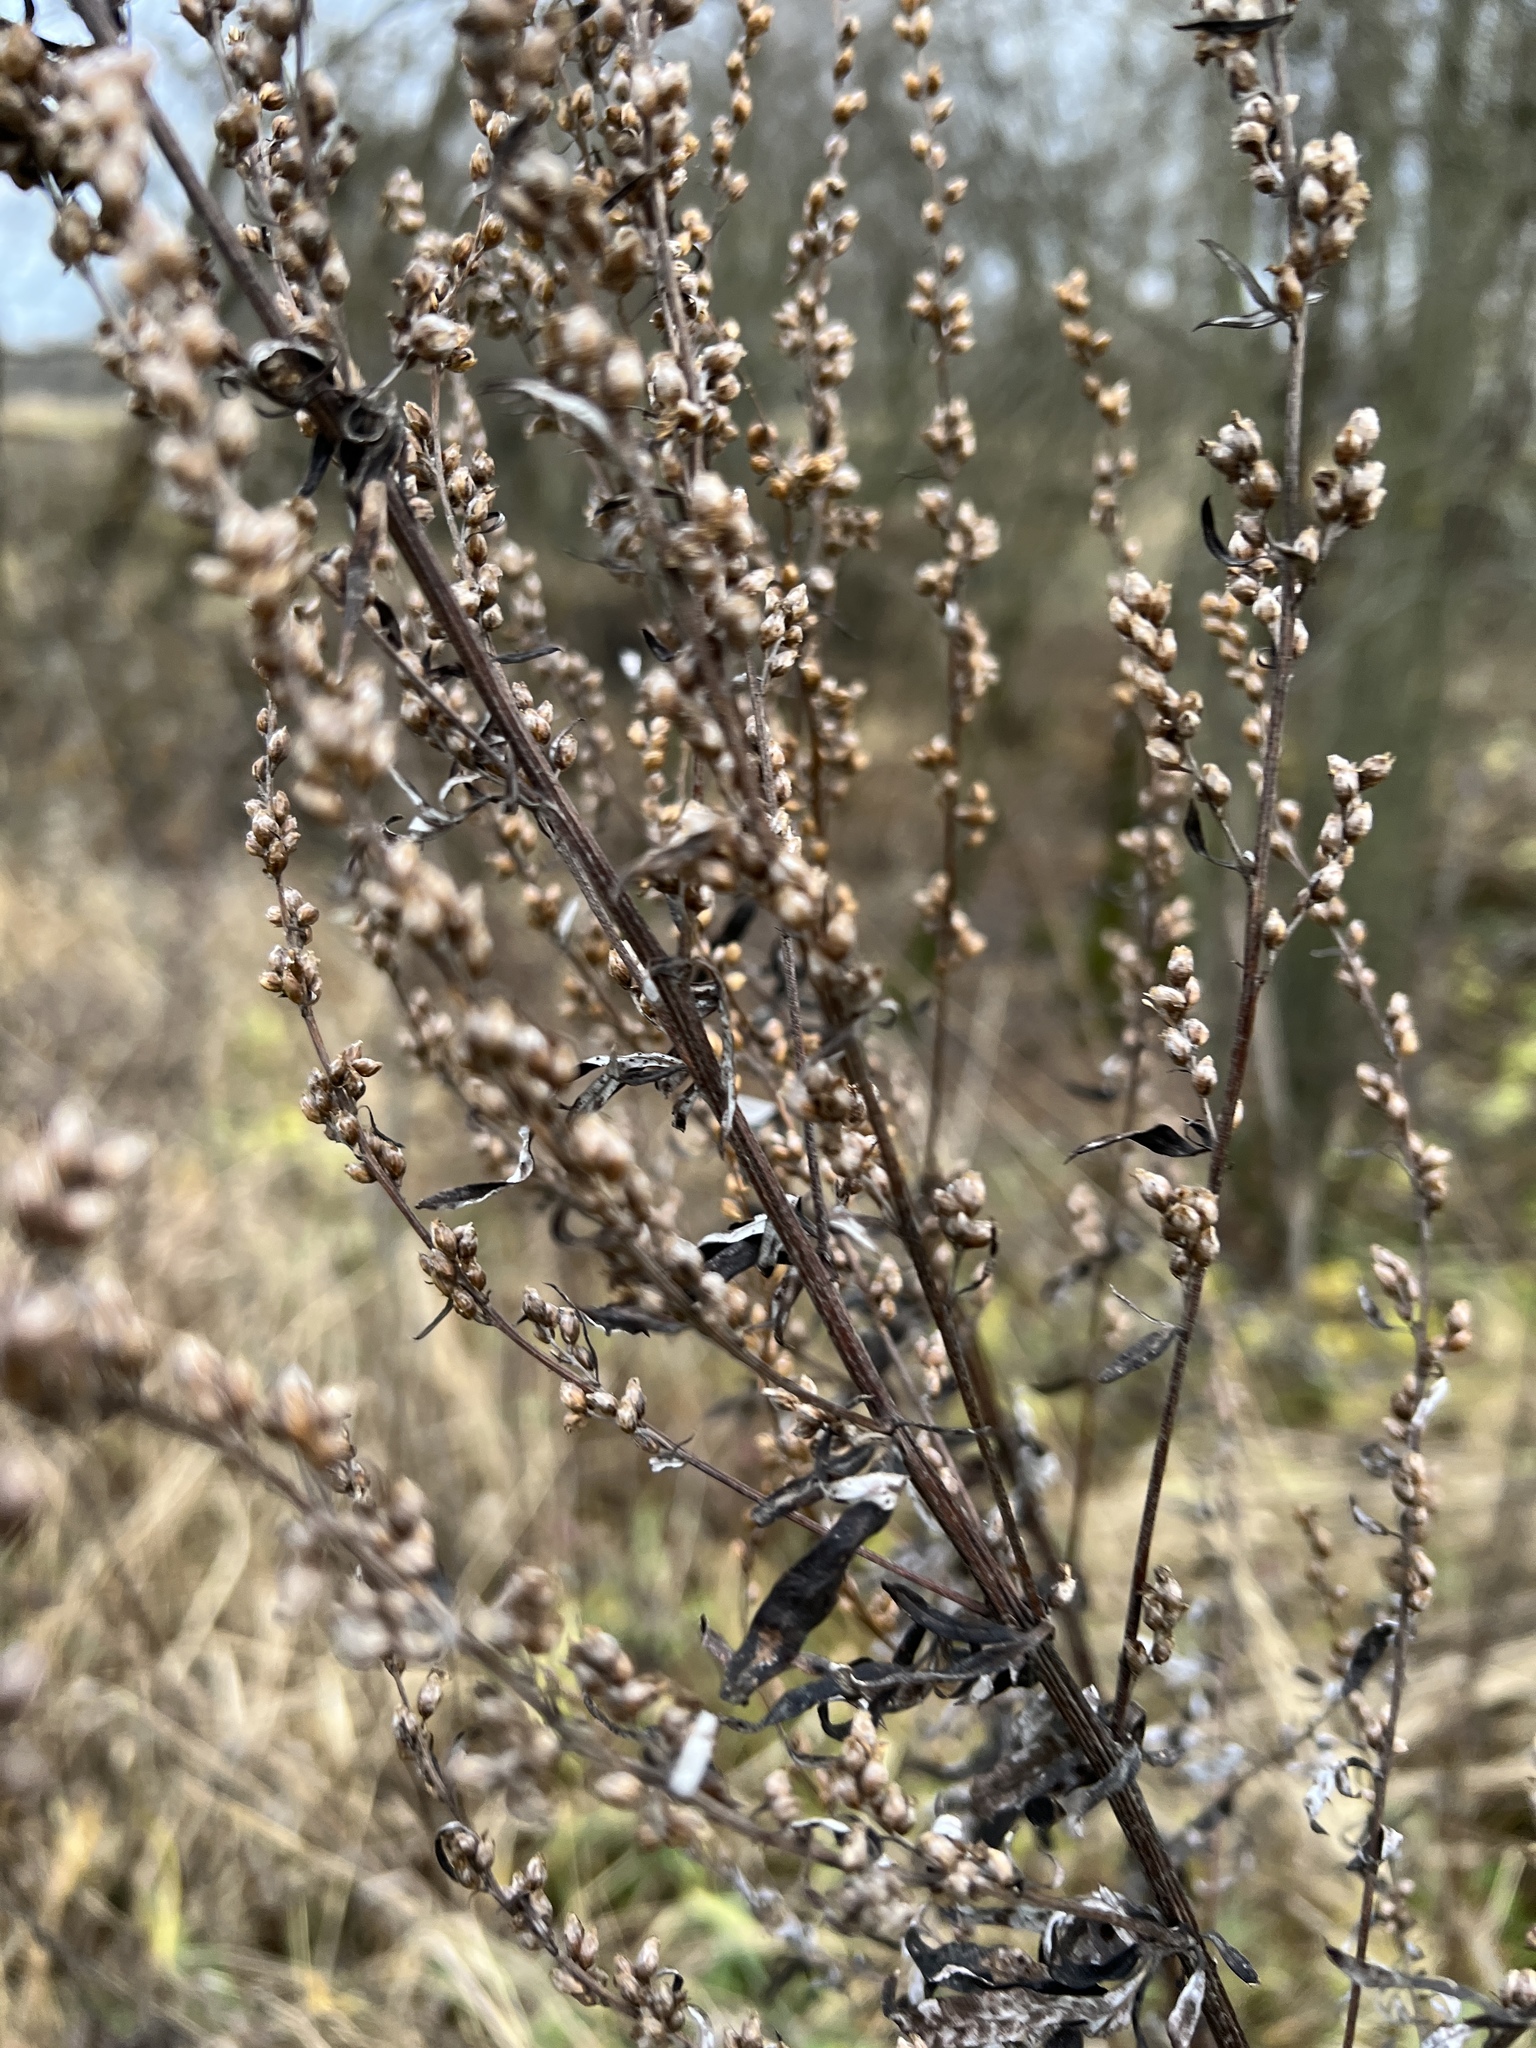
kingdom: Plantae
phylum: Tracheophyta
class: Magnoliopsida
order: Asterales
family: Asteraceae
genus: Artemisia
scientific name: Artemisia vulgaris
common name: Mugwort
